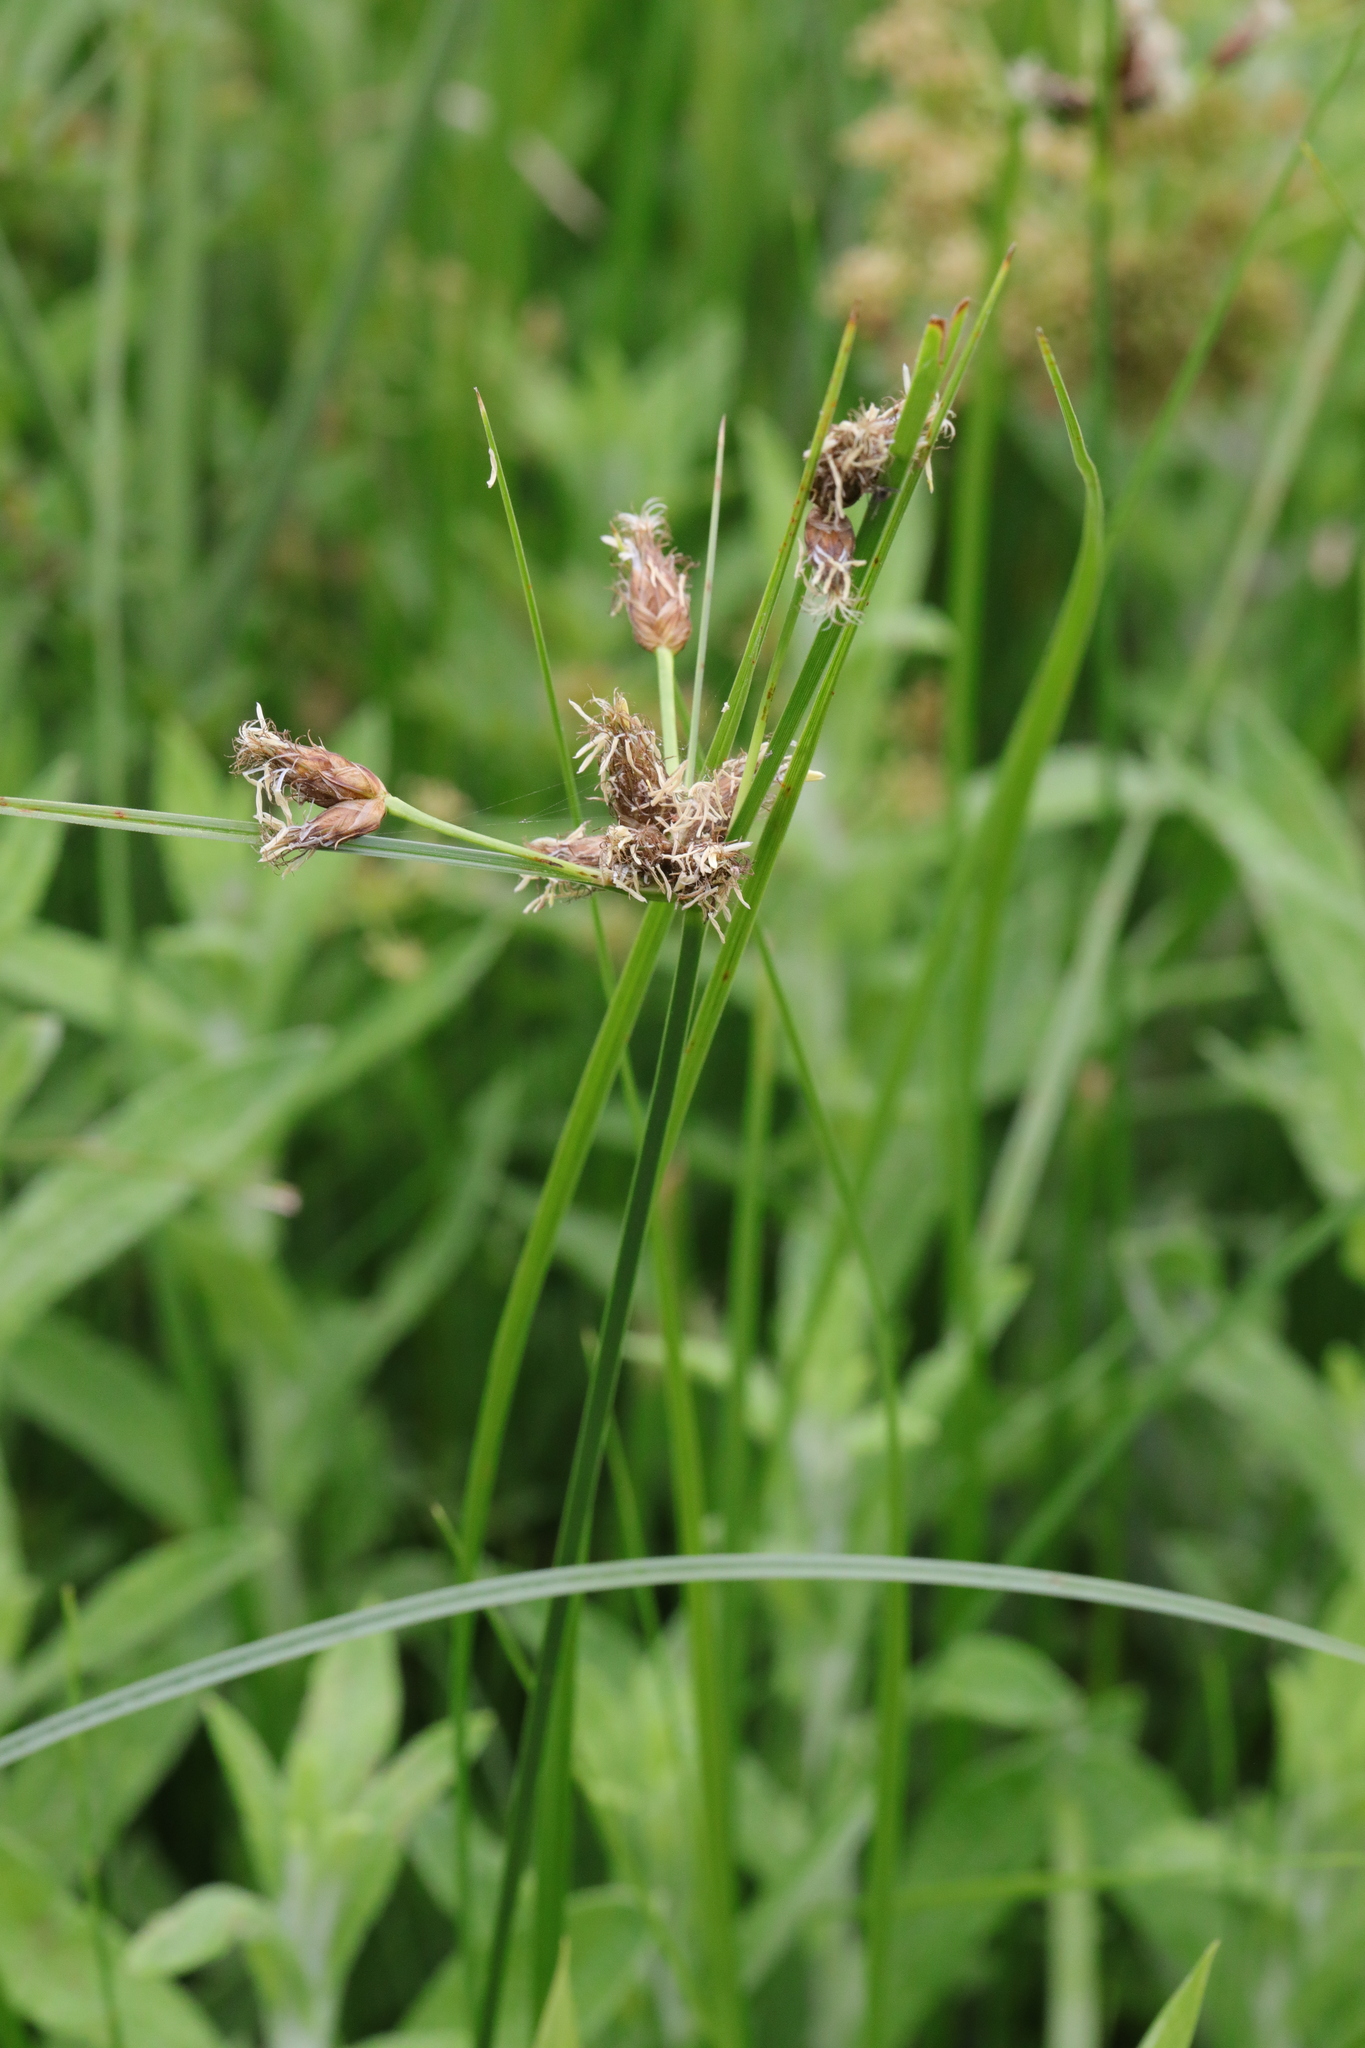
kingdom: Plantae
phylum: Tracheophyta
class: Liliopsida
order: Poales
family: Cyperaceae
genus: Bolboschoenus
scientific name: Bolboschoenus maritimus
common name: Sea club-rush
